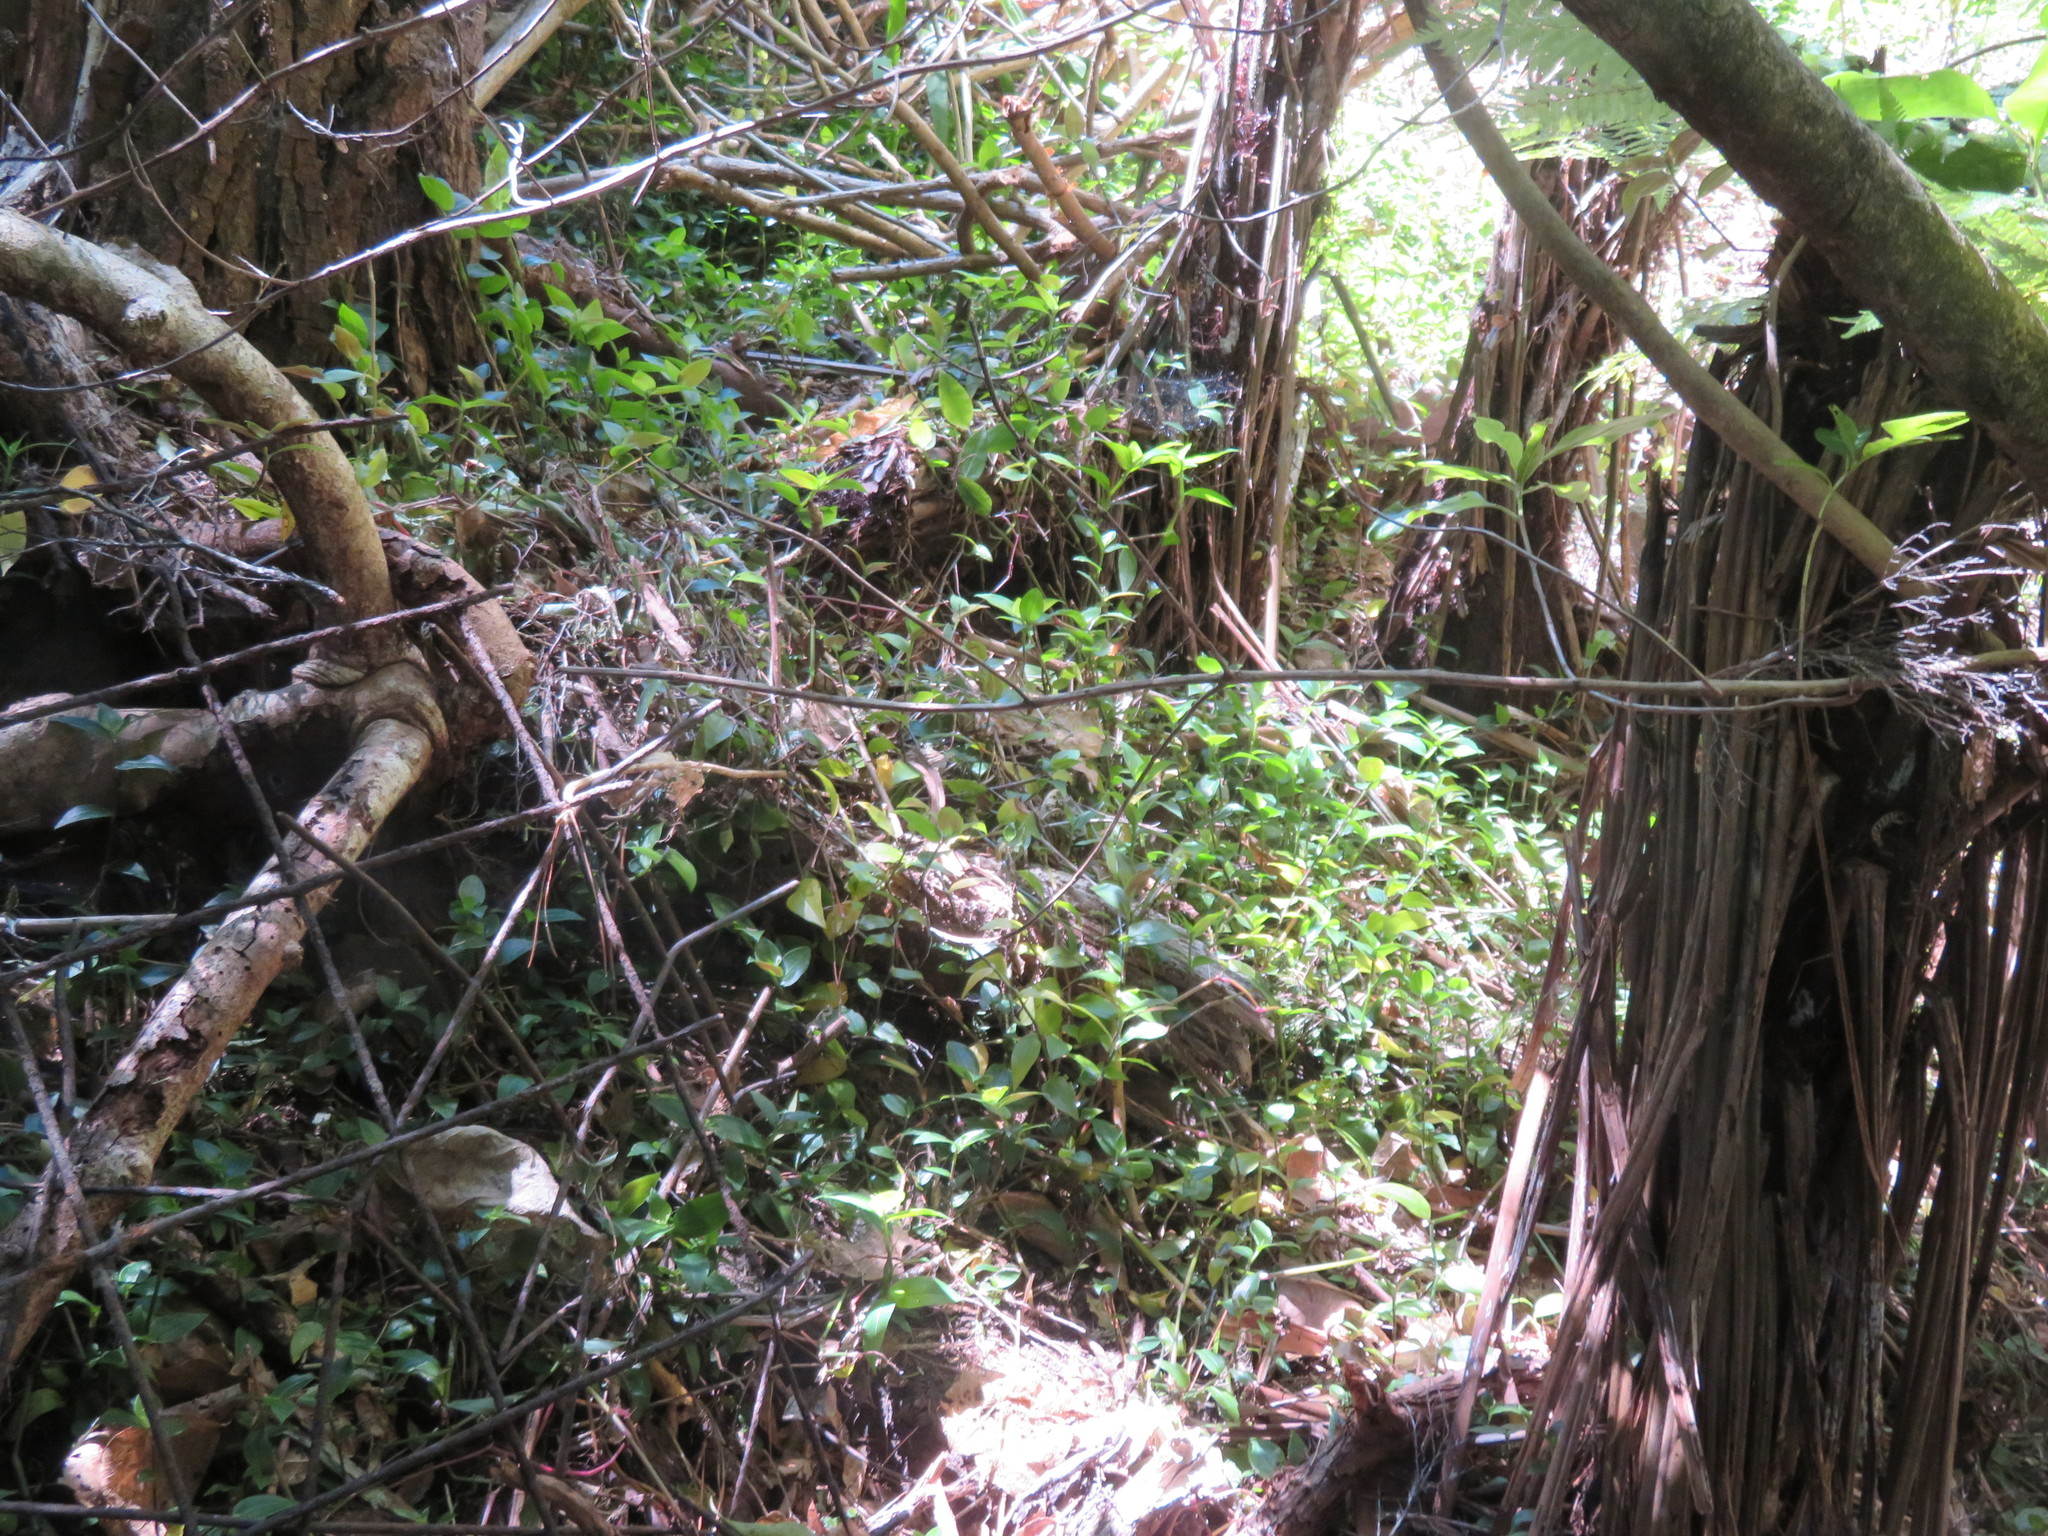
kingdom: Plantae
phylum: Tracheophyta
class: Liliopsida
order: Commelinales
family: Commelinaceae
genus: Tradescantia
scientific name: Tradescantia fluminensis
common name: Wandering-jew
